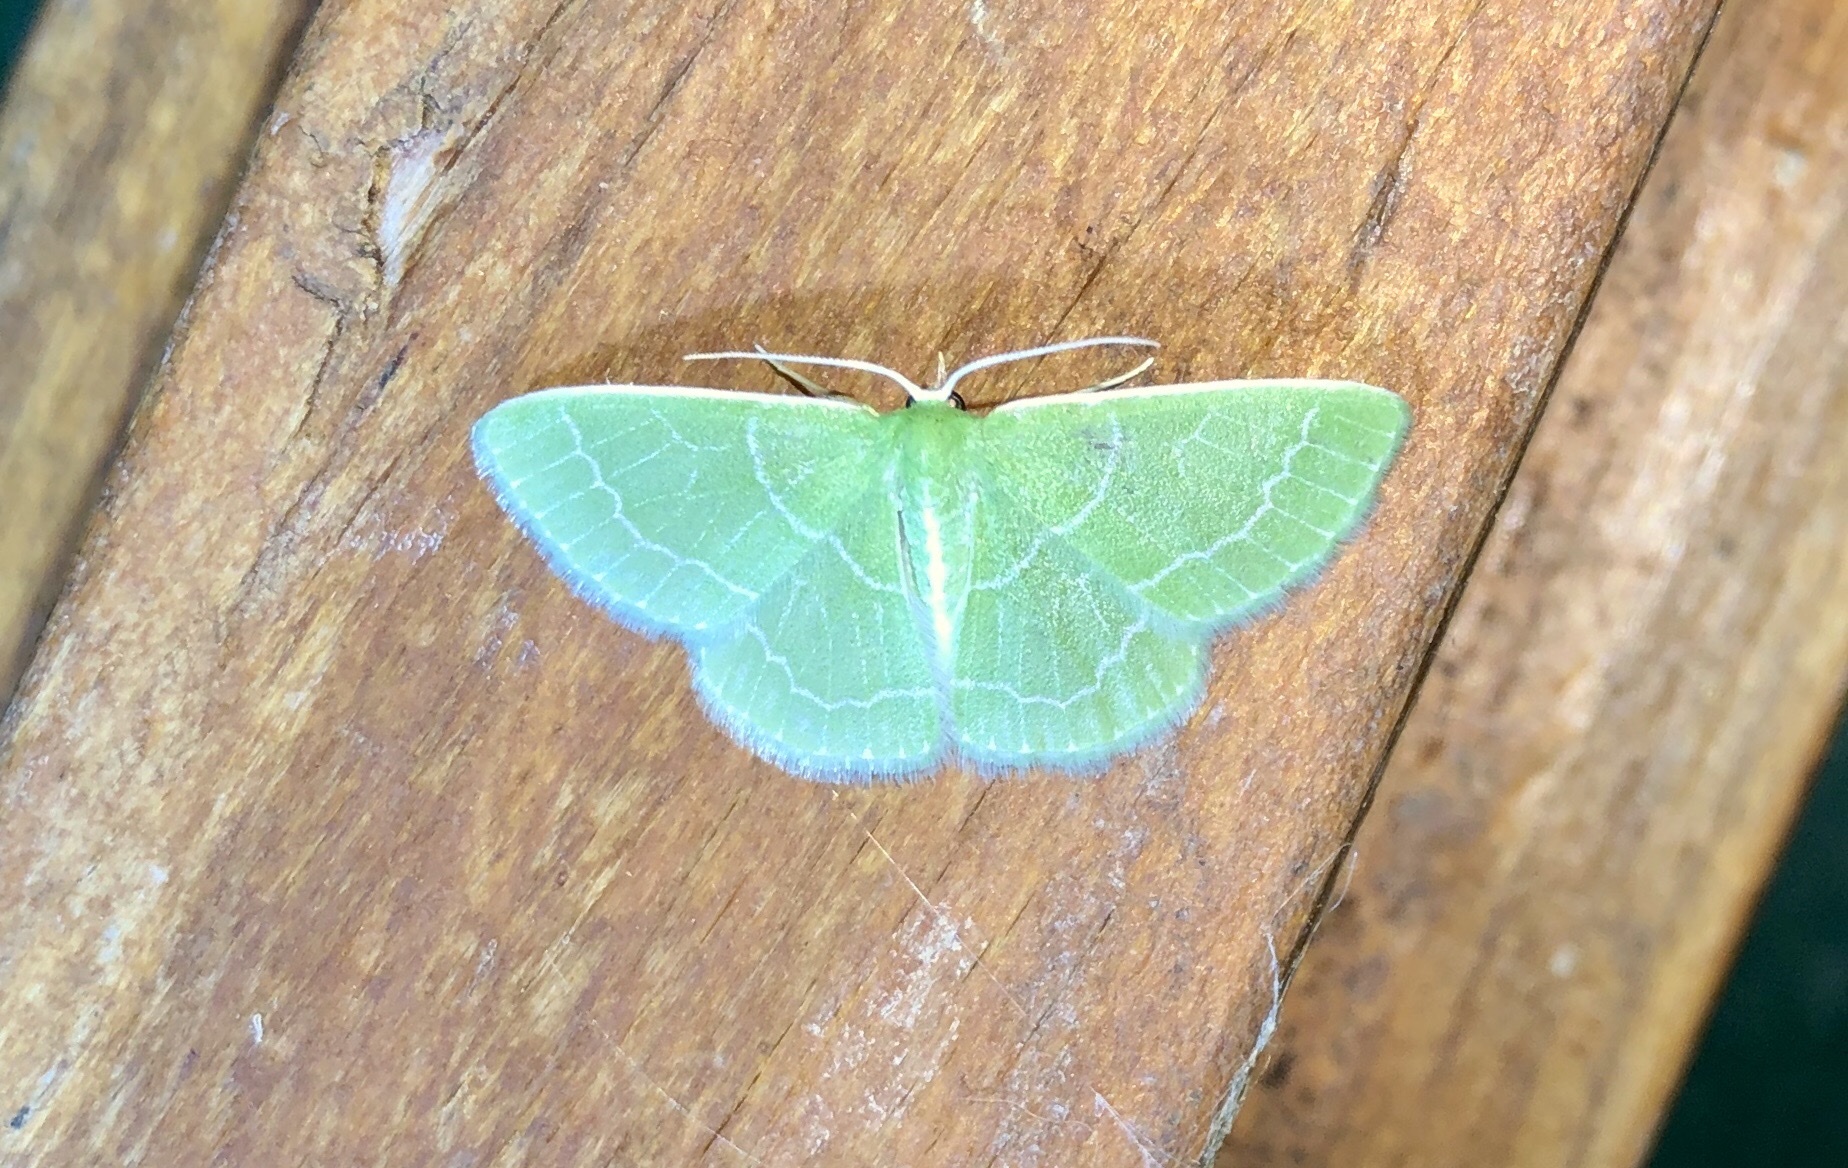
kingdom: Animalia
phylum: Arthropoda
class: Insecta
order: Lepidoptera
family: Geometridae
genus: Synchlora
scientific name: Synchlora aerata
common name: Wavy-lined emerald
